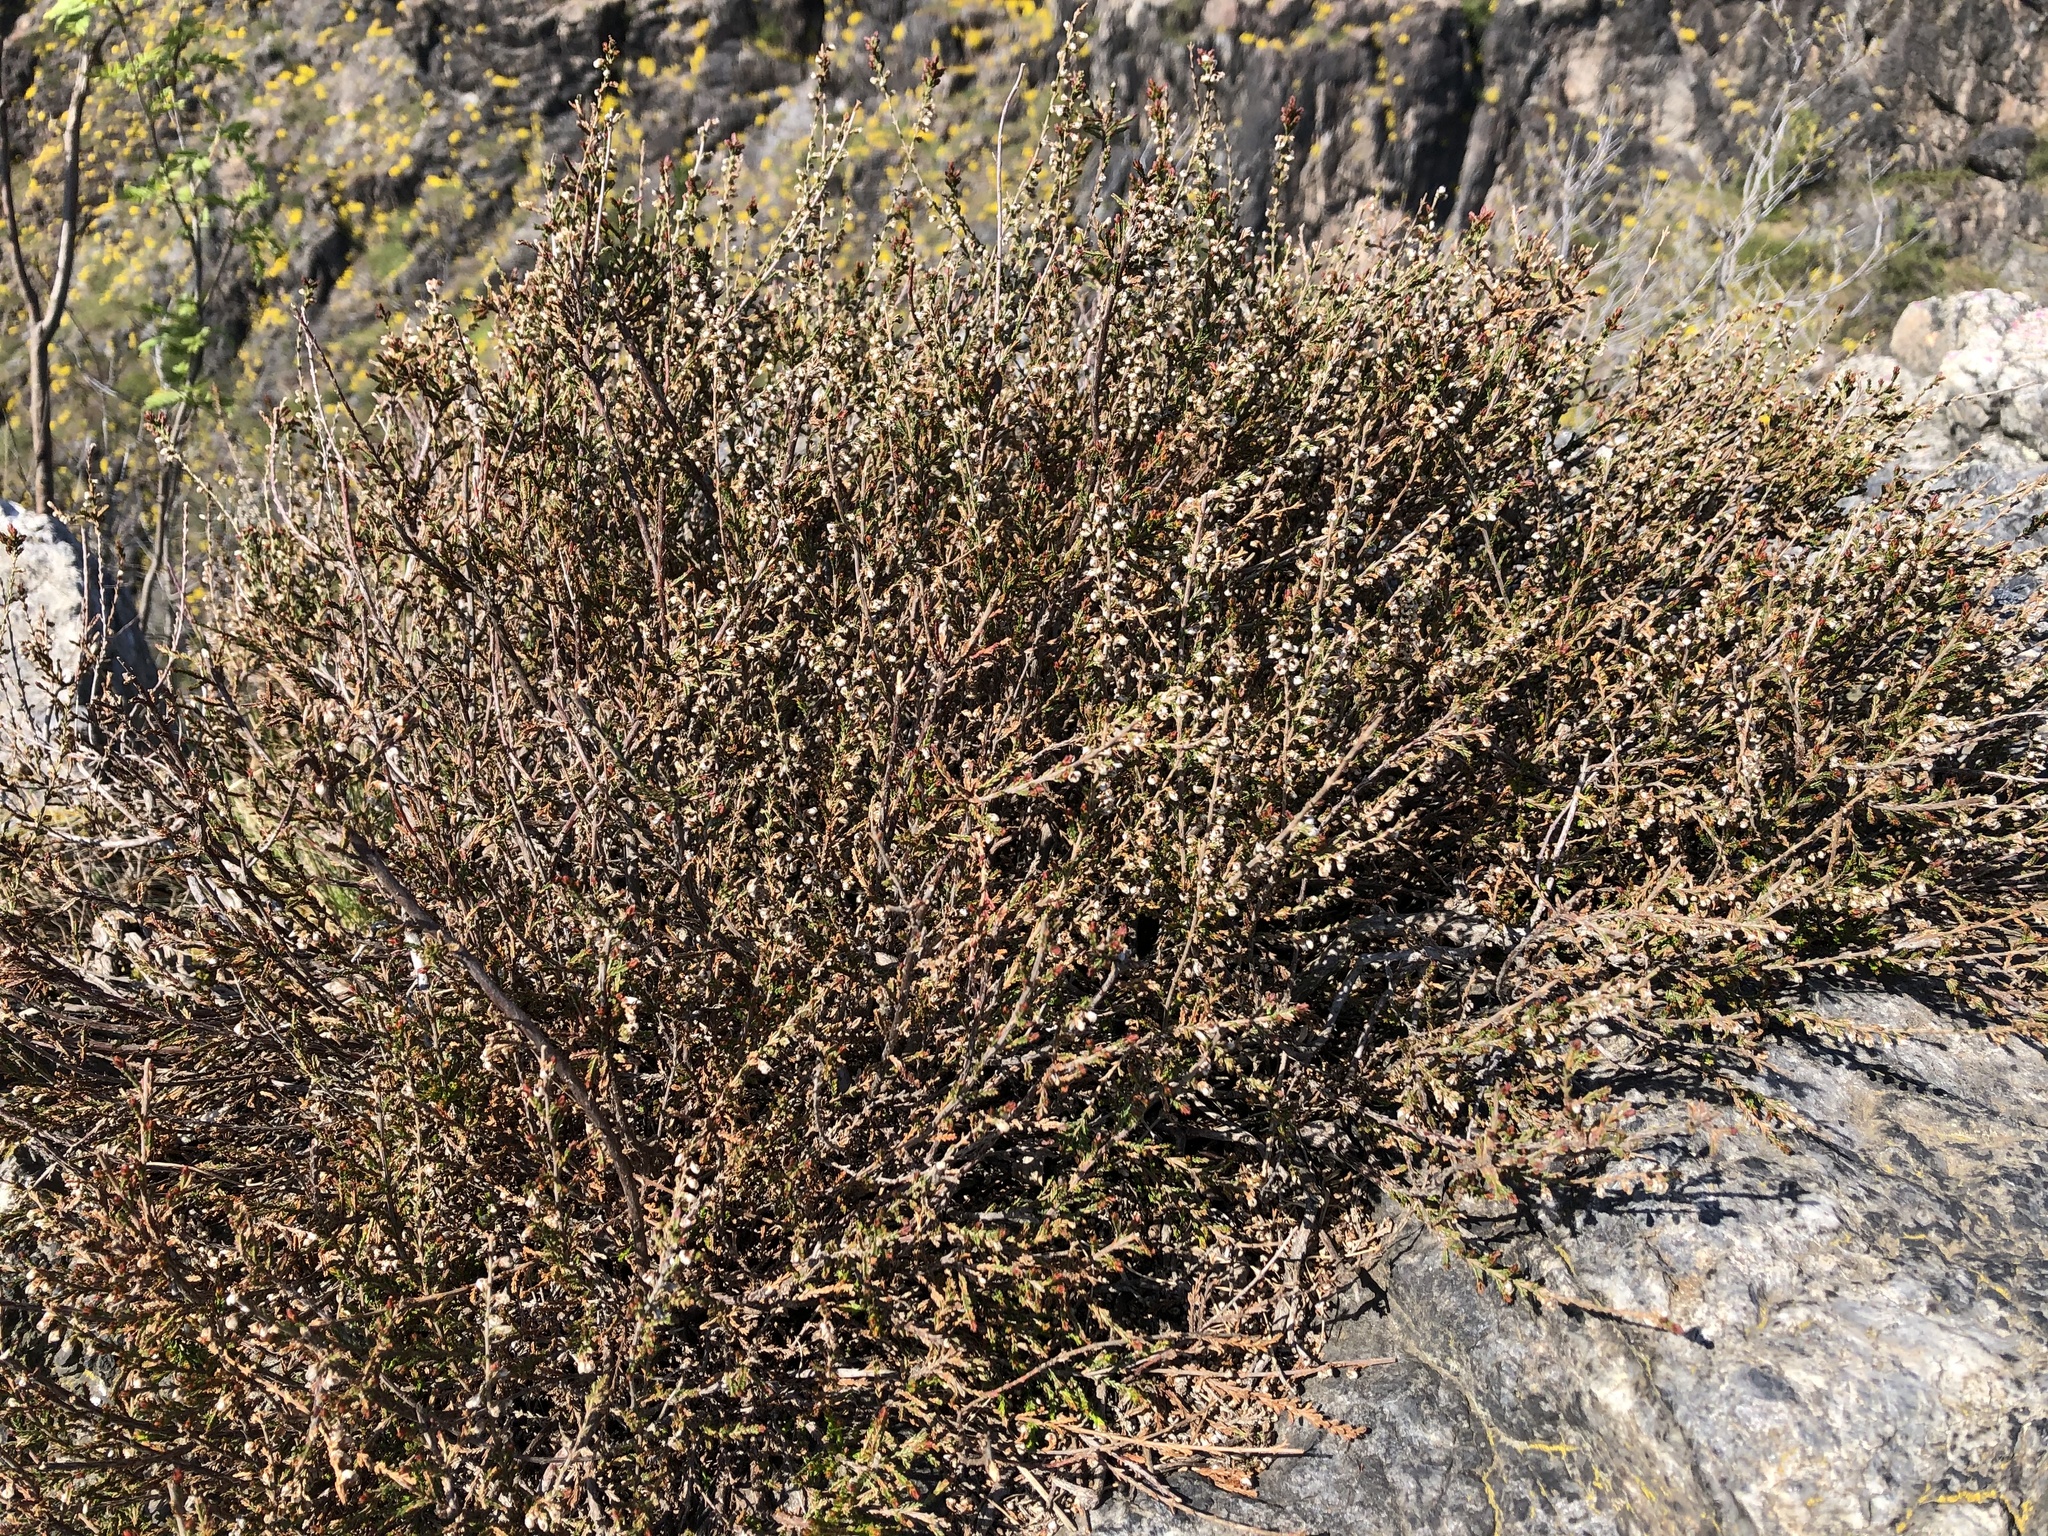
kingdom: Plantae
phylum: Tracheophyta
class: Magnoliopsida
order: Ericales
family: Ericaceae
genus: Calluna
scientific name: Calluna vulgaris
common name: Heather
